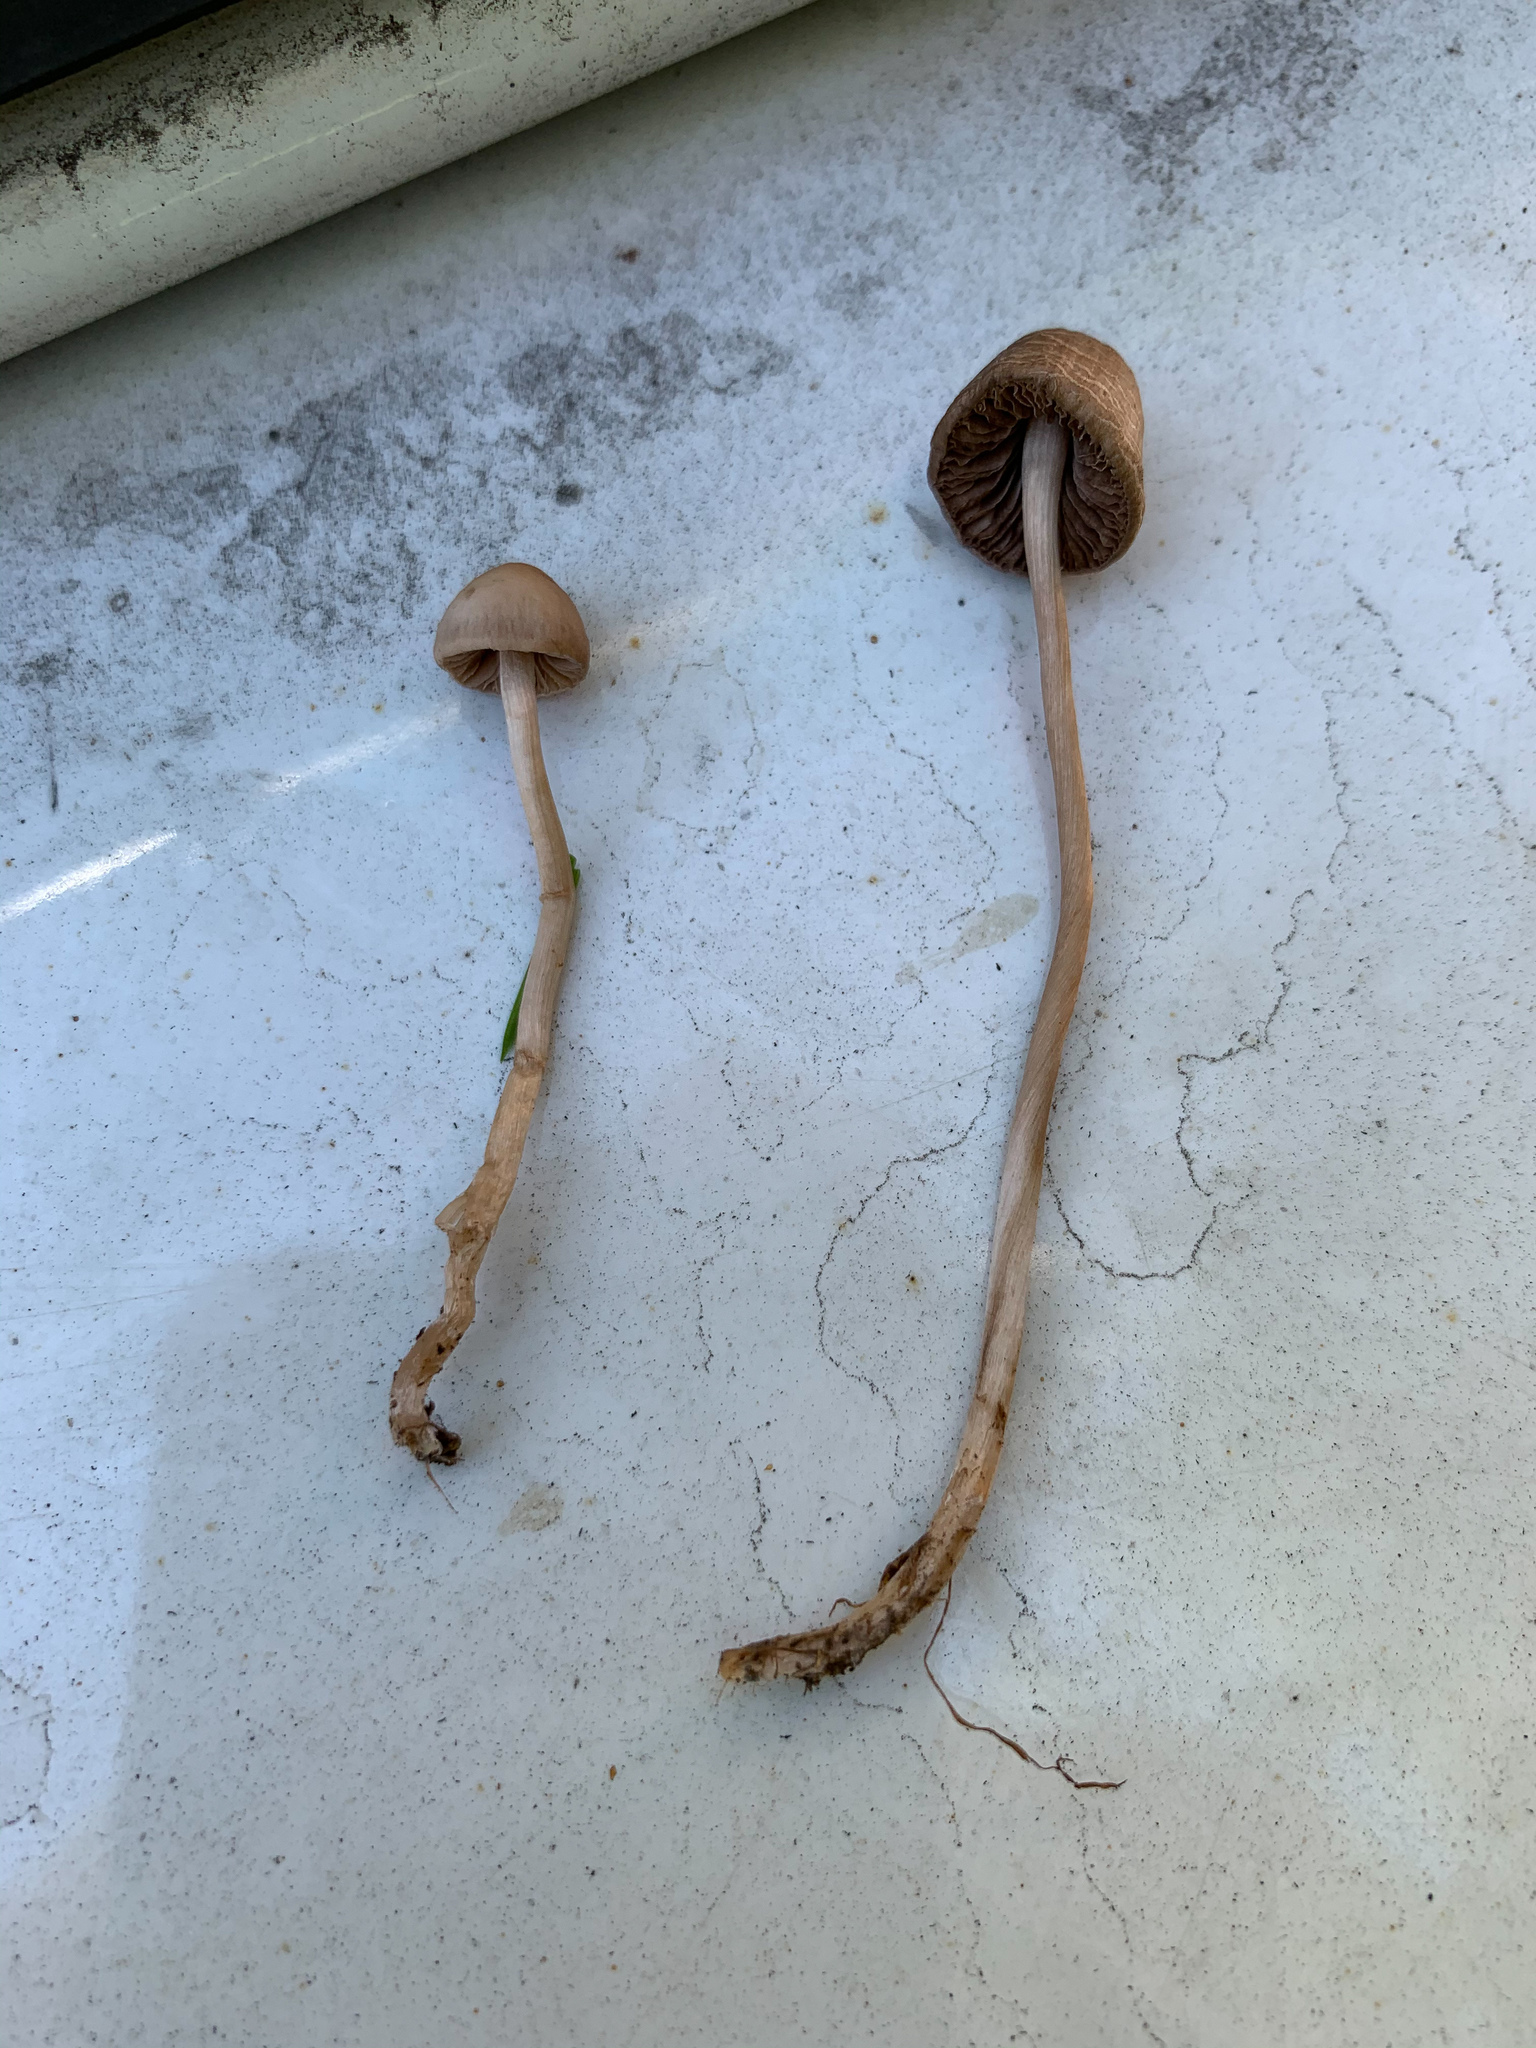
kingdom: Fungi
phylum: Basidiomycota
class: Agaricomycetes
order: Agaricales
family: Bolbitiaceae
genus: Conocybe
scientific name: Conocybe tenera
